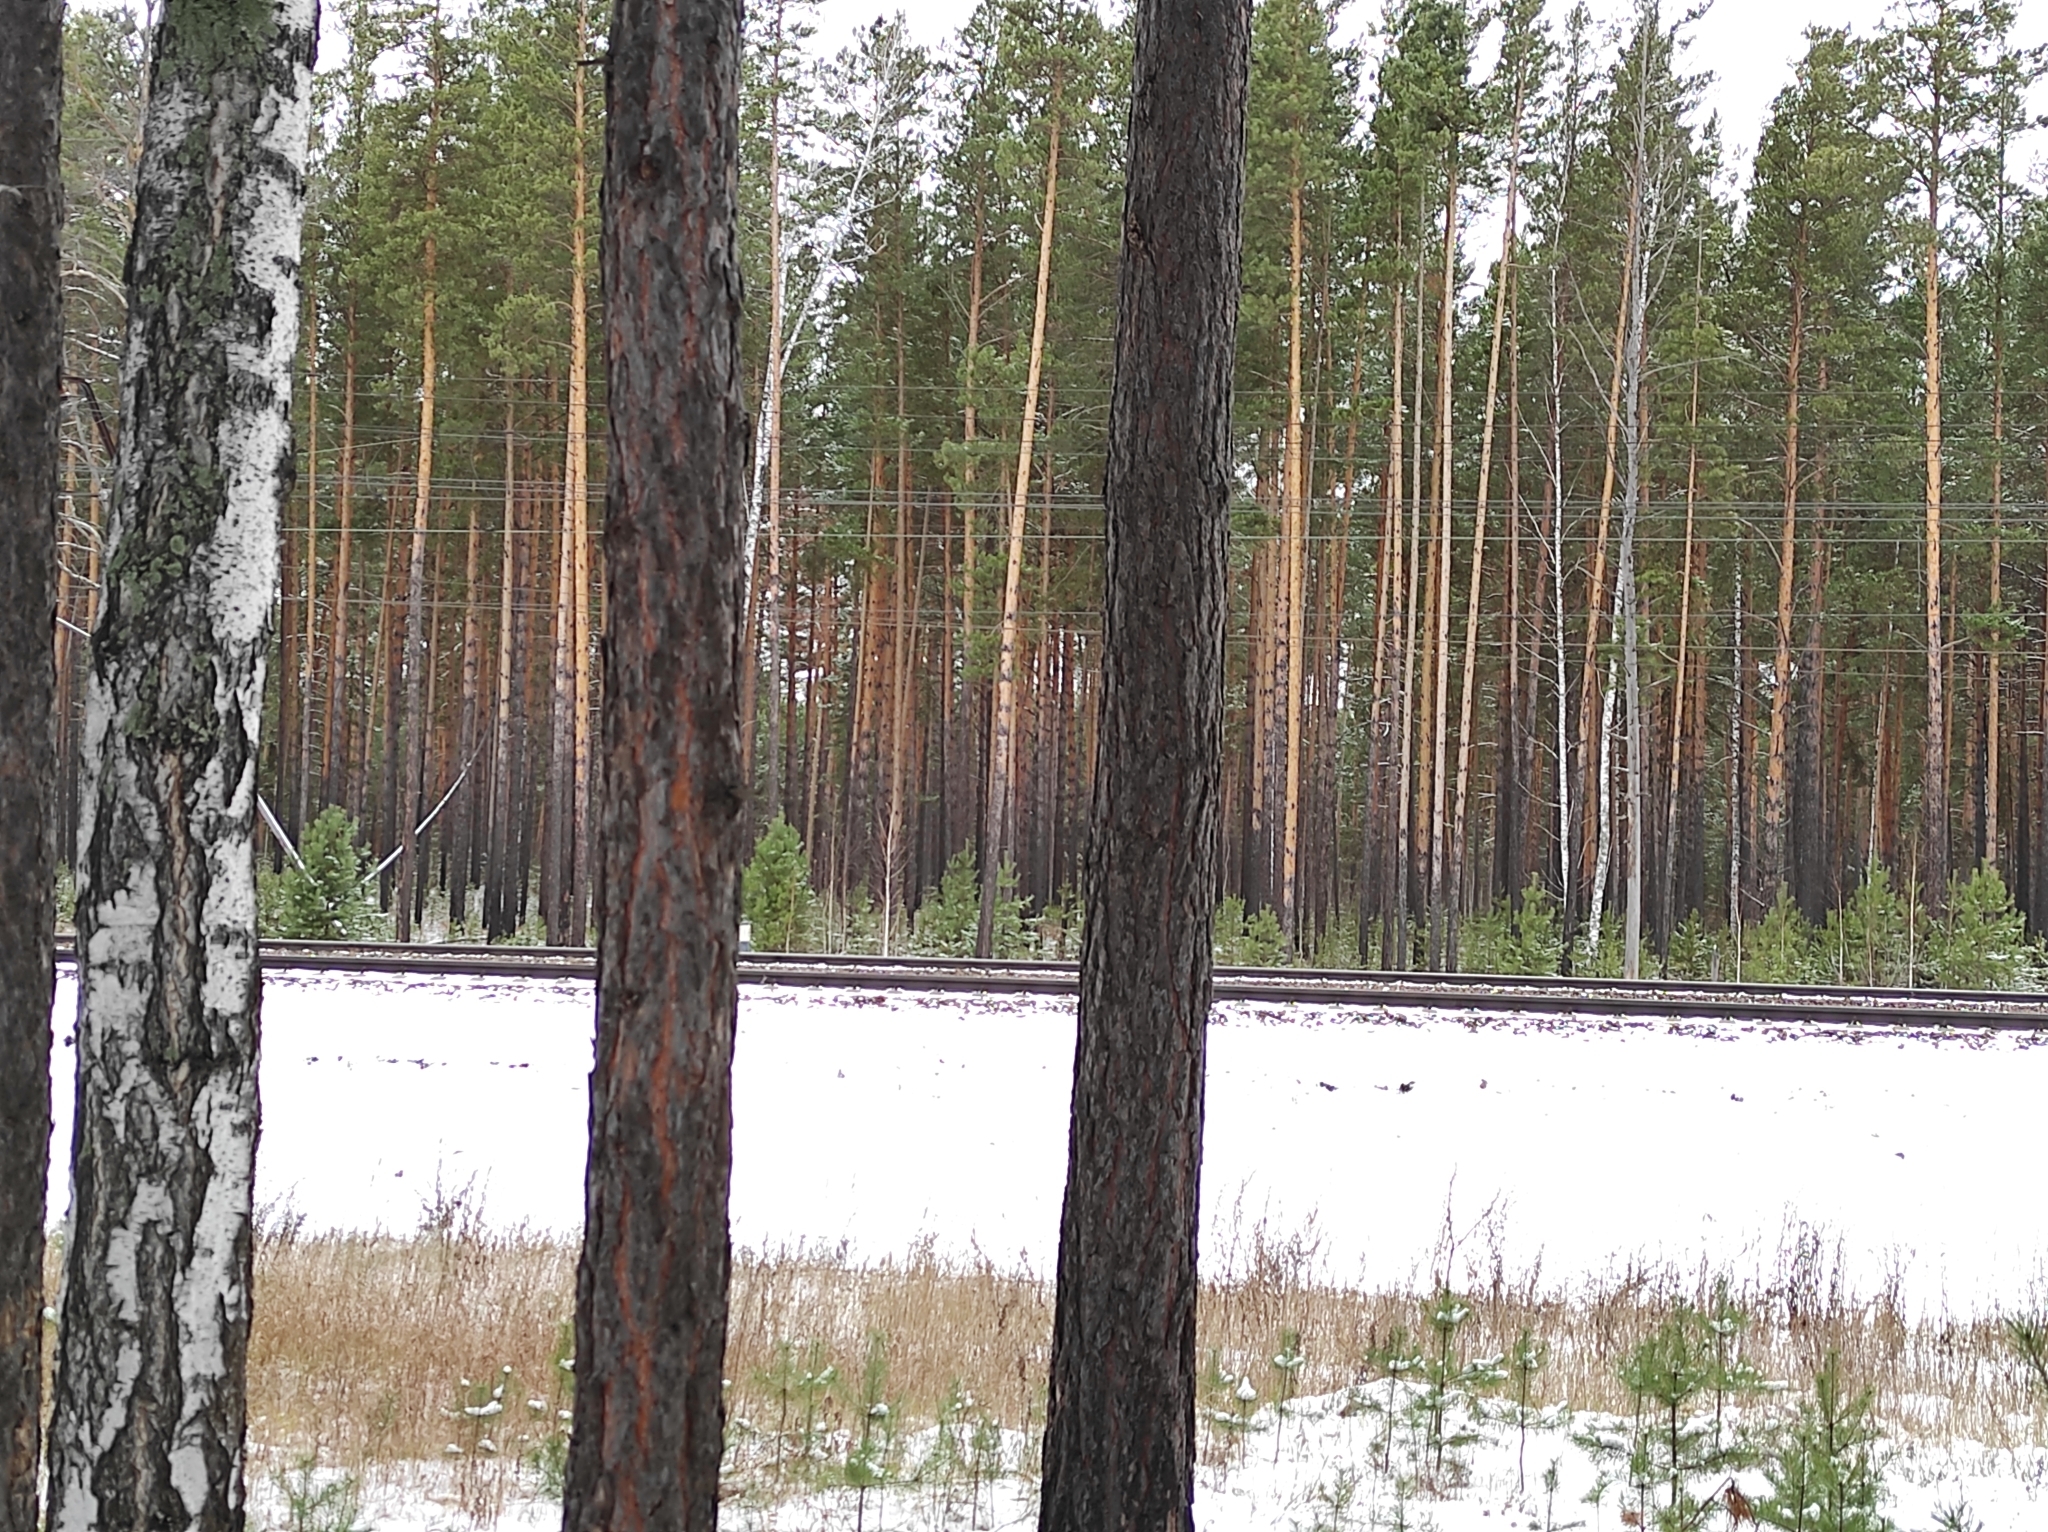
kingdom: Plantae
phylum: Tracheophyta
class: Pinopsida
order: Pinales
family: Pinaceae
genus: Pinus
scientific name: Pinus sylvestris
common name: Scots pine
